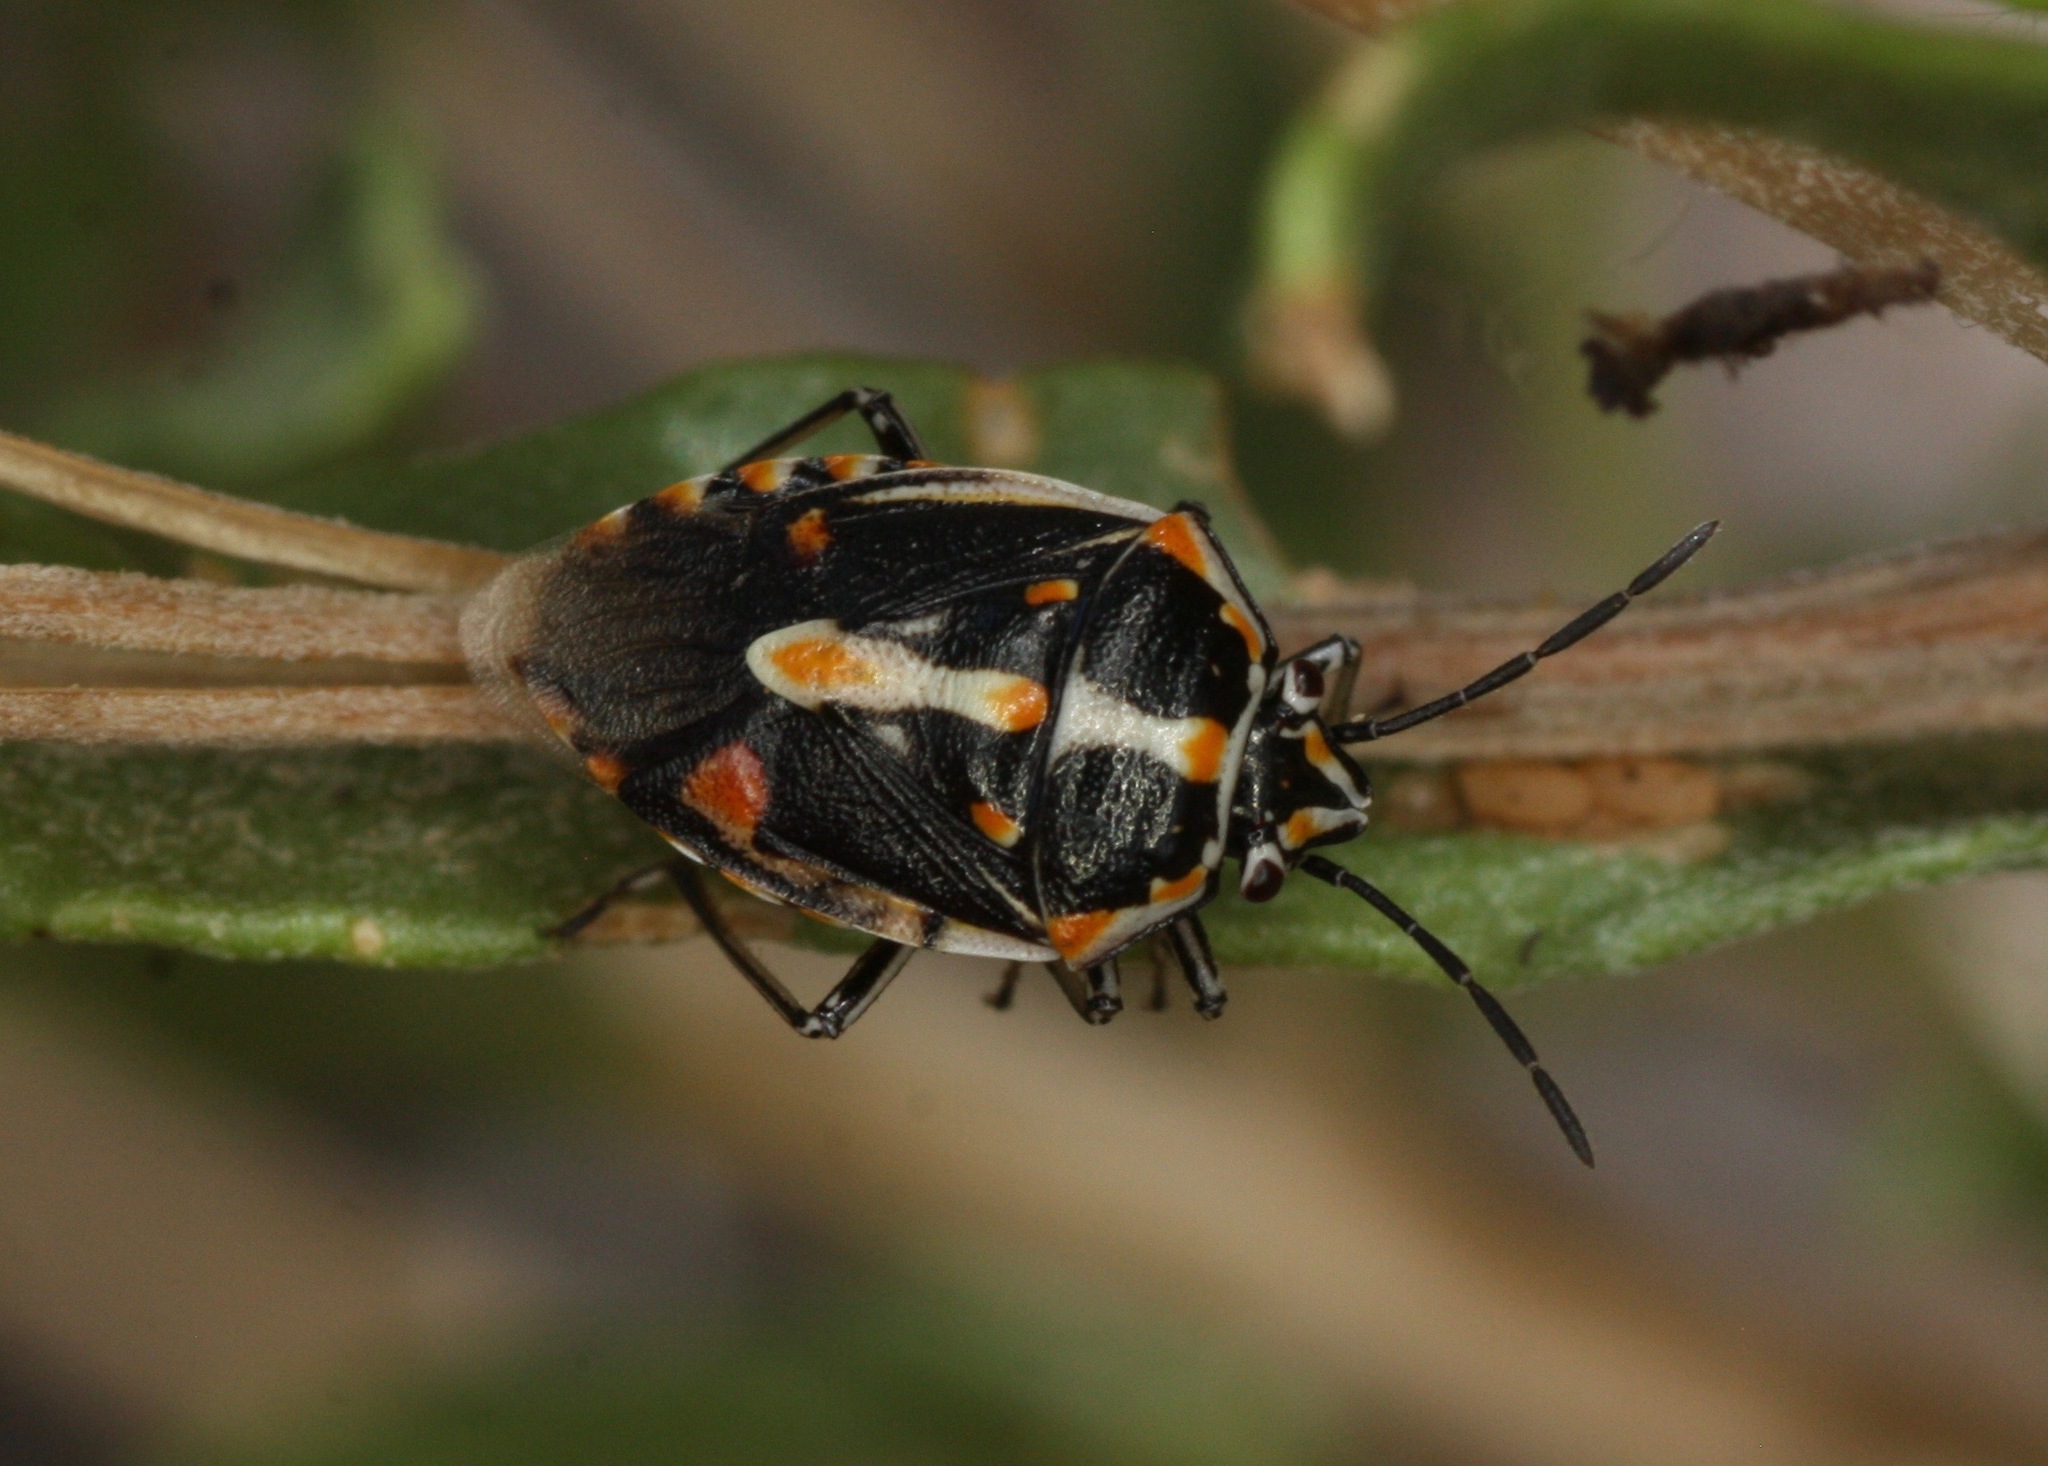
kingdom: Animalia
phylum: Arthropoda
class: Insecta
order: Hemiptera
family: Pentatomidae
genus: Bagrada
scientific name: Bagrada hilaris
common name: Bagrada bug
